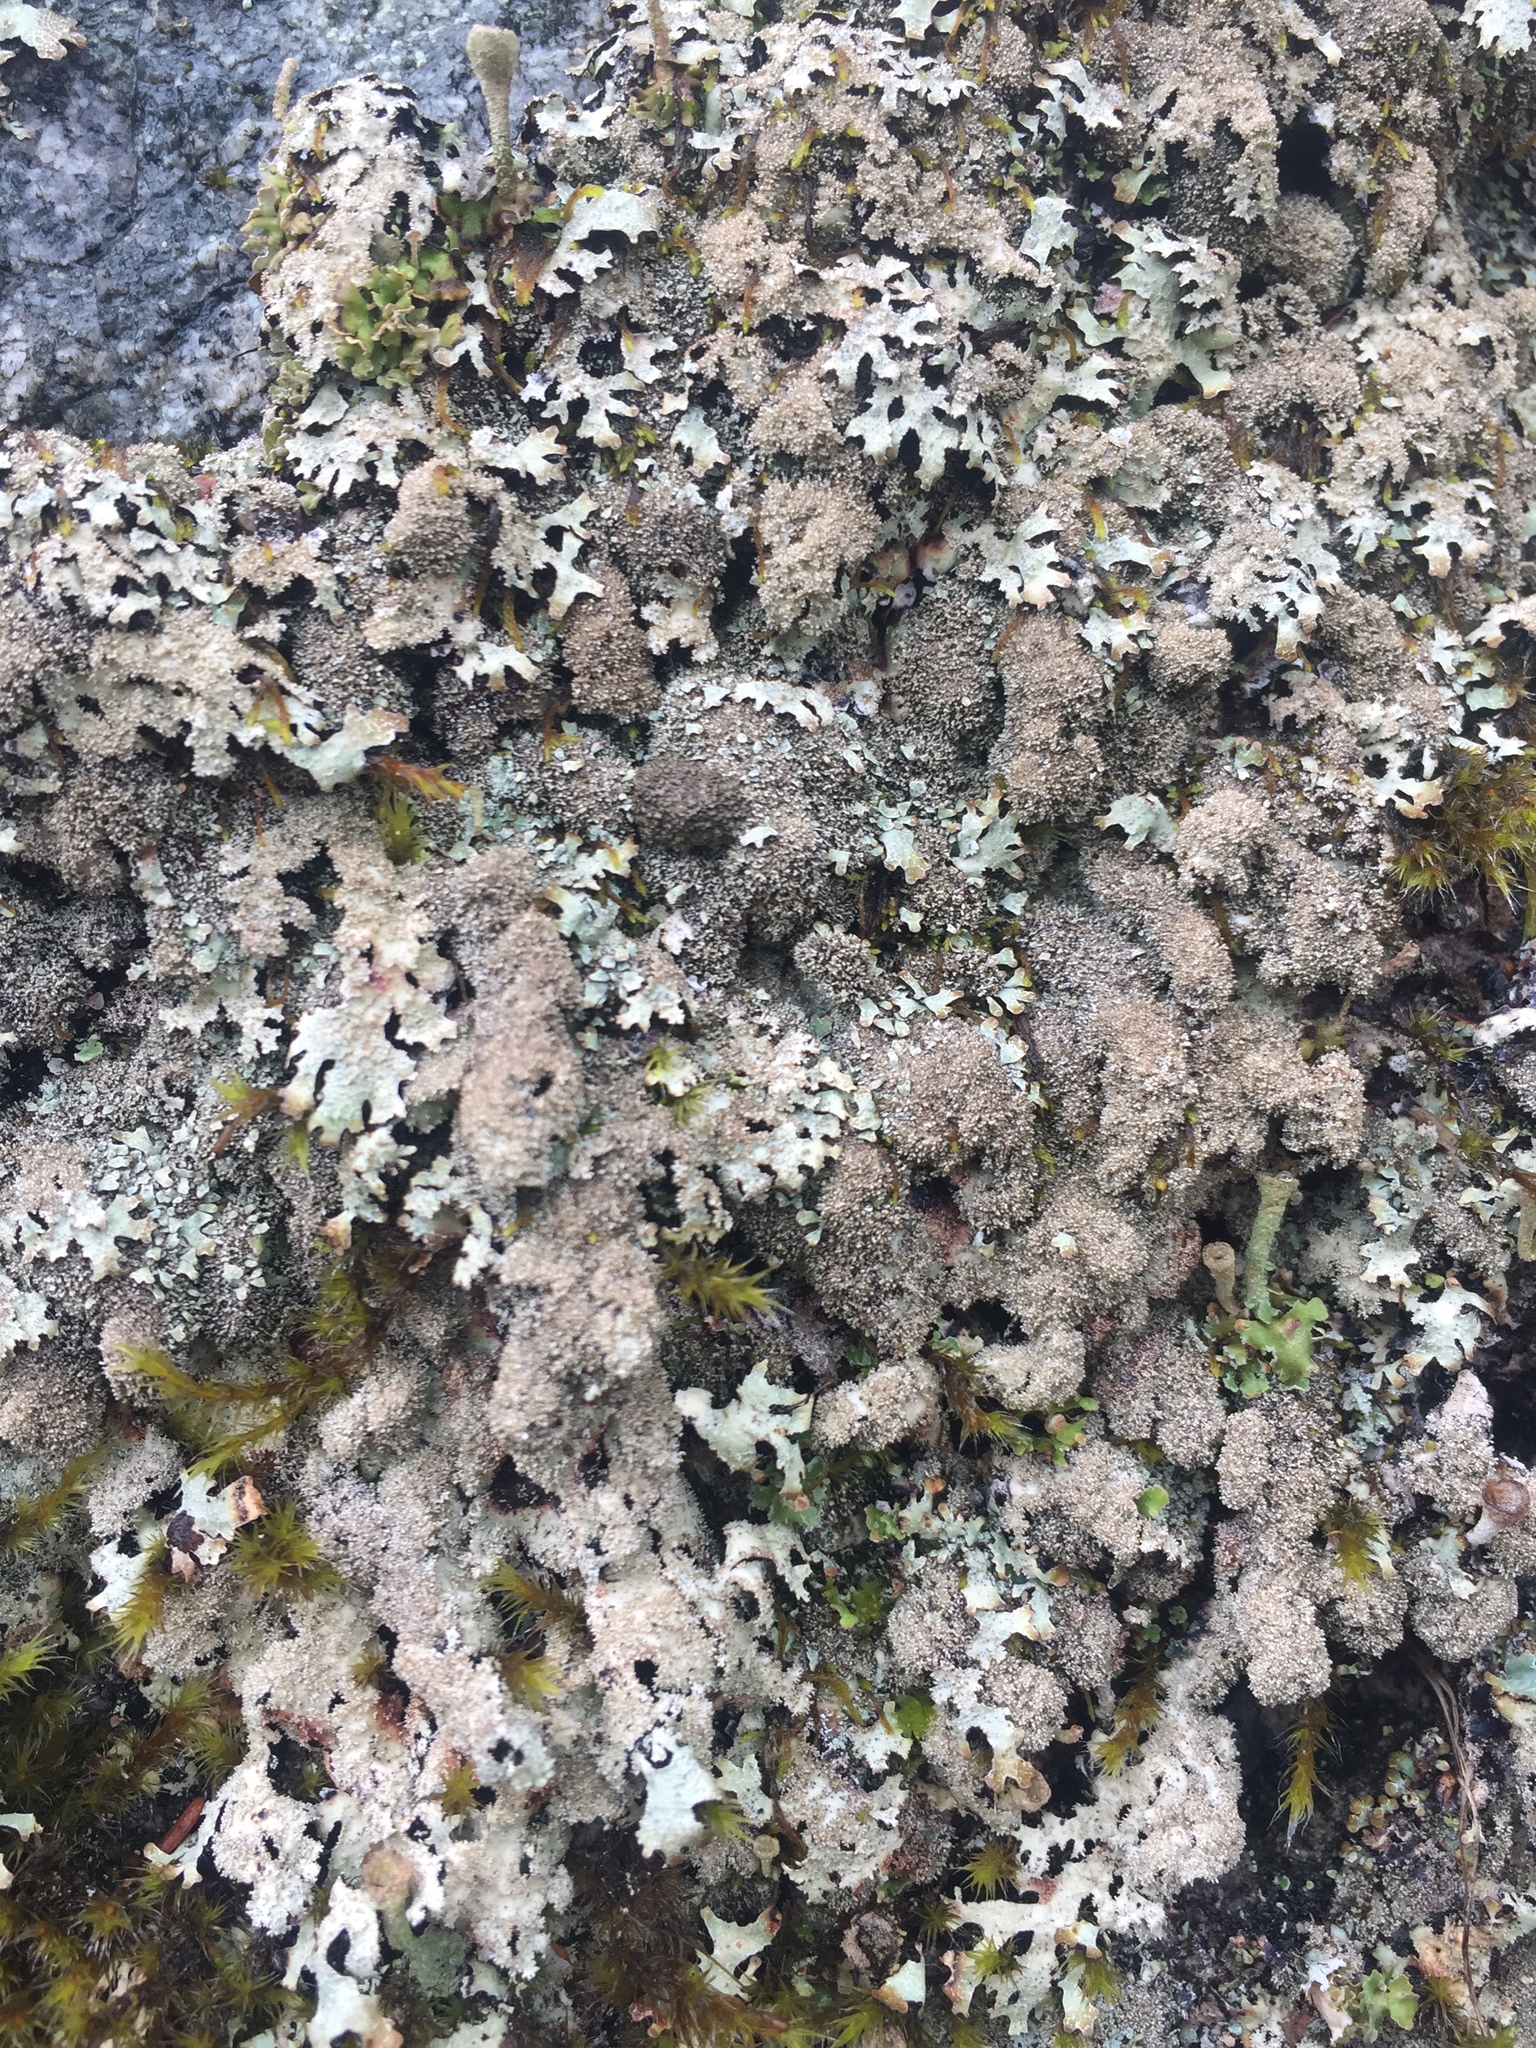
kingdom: Fungi
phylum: Ascomycota
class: Lecanoromycetes
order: Lecanorales
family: Parmeliaceae
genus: Parmelia
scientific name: Parmelia saxatilis
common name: Salted shield lichen
